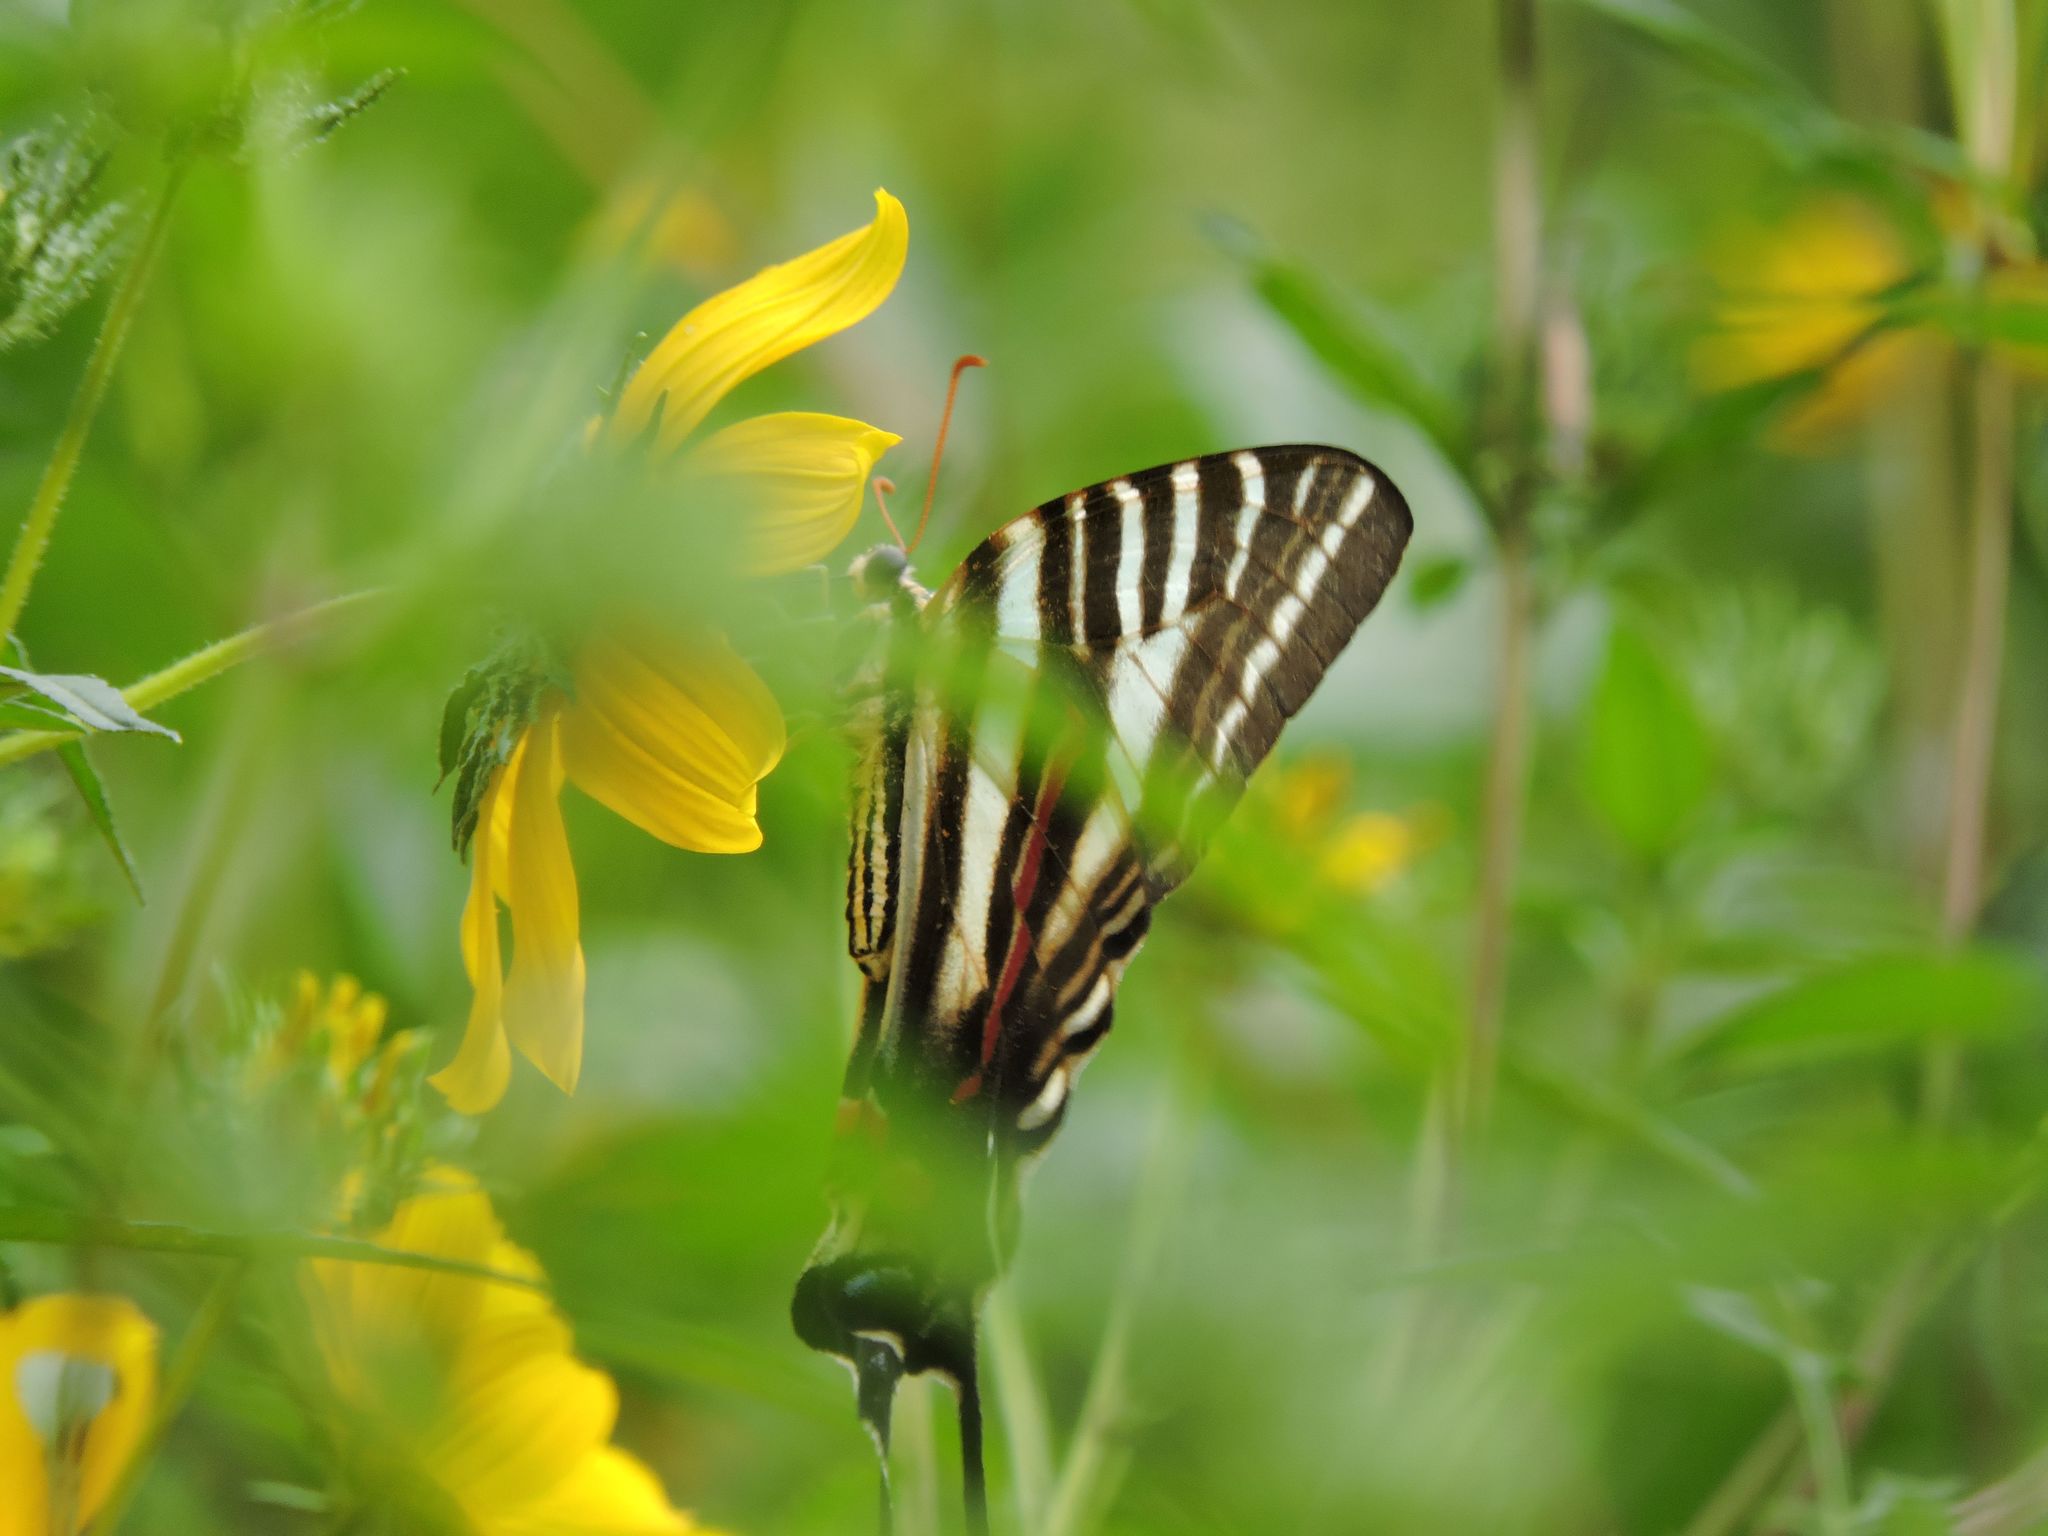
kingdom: Animalia
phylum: Arthropoda
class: Insecta
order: Lepidoptera
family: Papilionidae
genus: Protographium
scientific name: Protographium marcellus
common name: Zebra swallowtail
